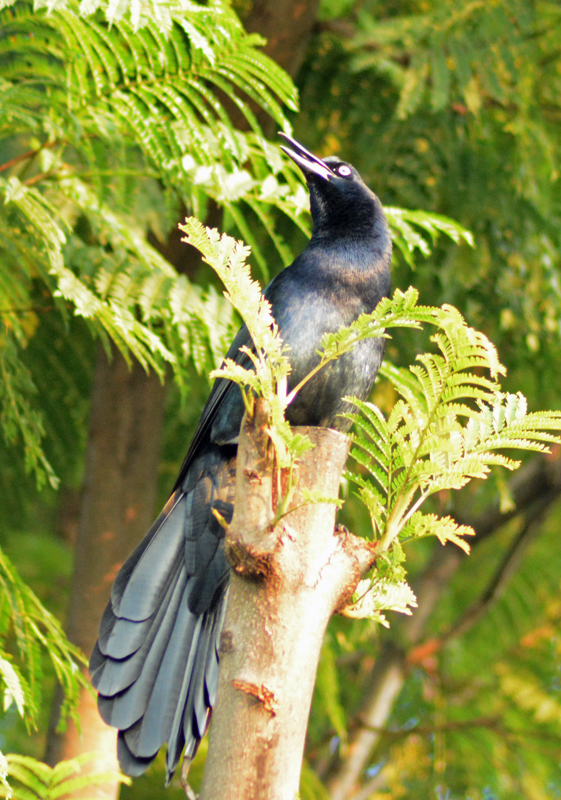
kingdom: Animalia
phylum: Chordata
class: Aves
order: Passeriformes
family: Icteridae
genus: Quiscalus
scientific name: Quiscalus mexicanus
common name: Great-tailed grackle
